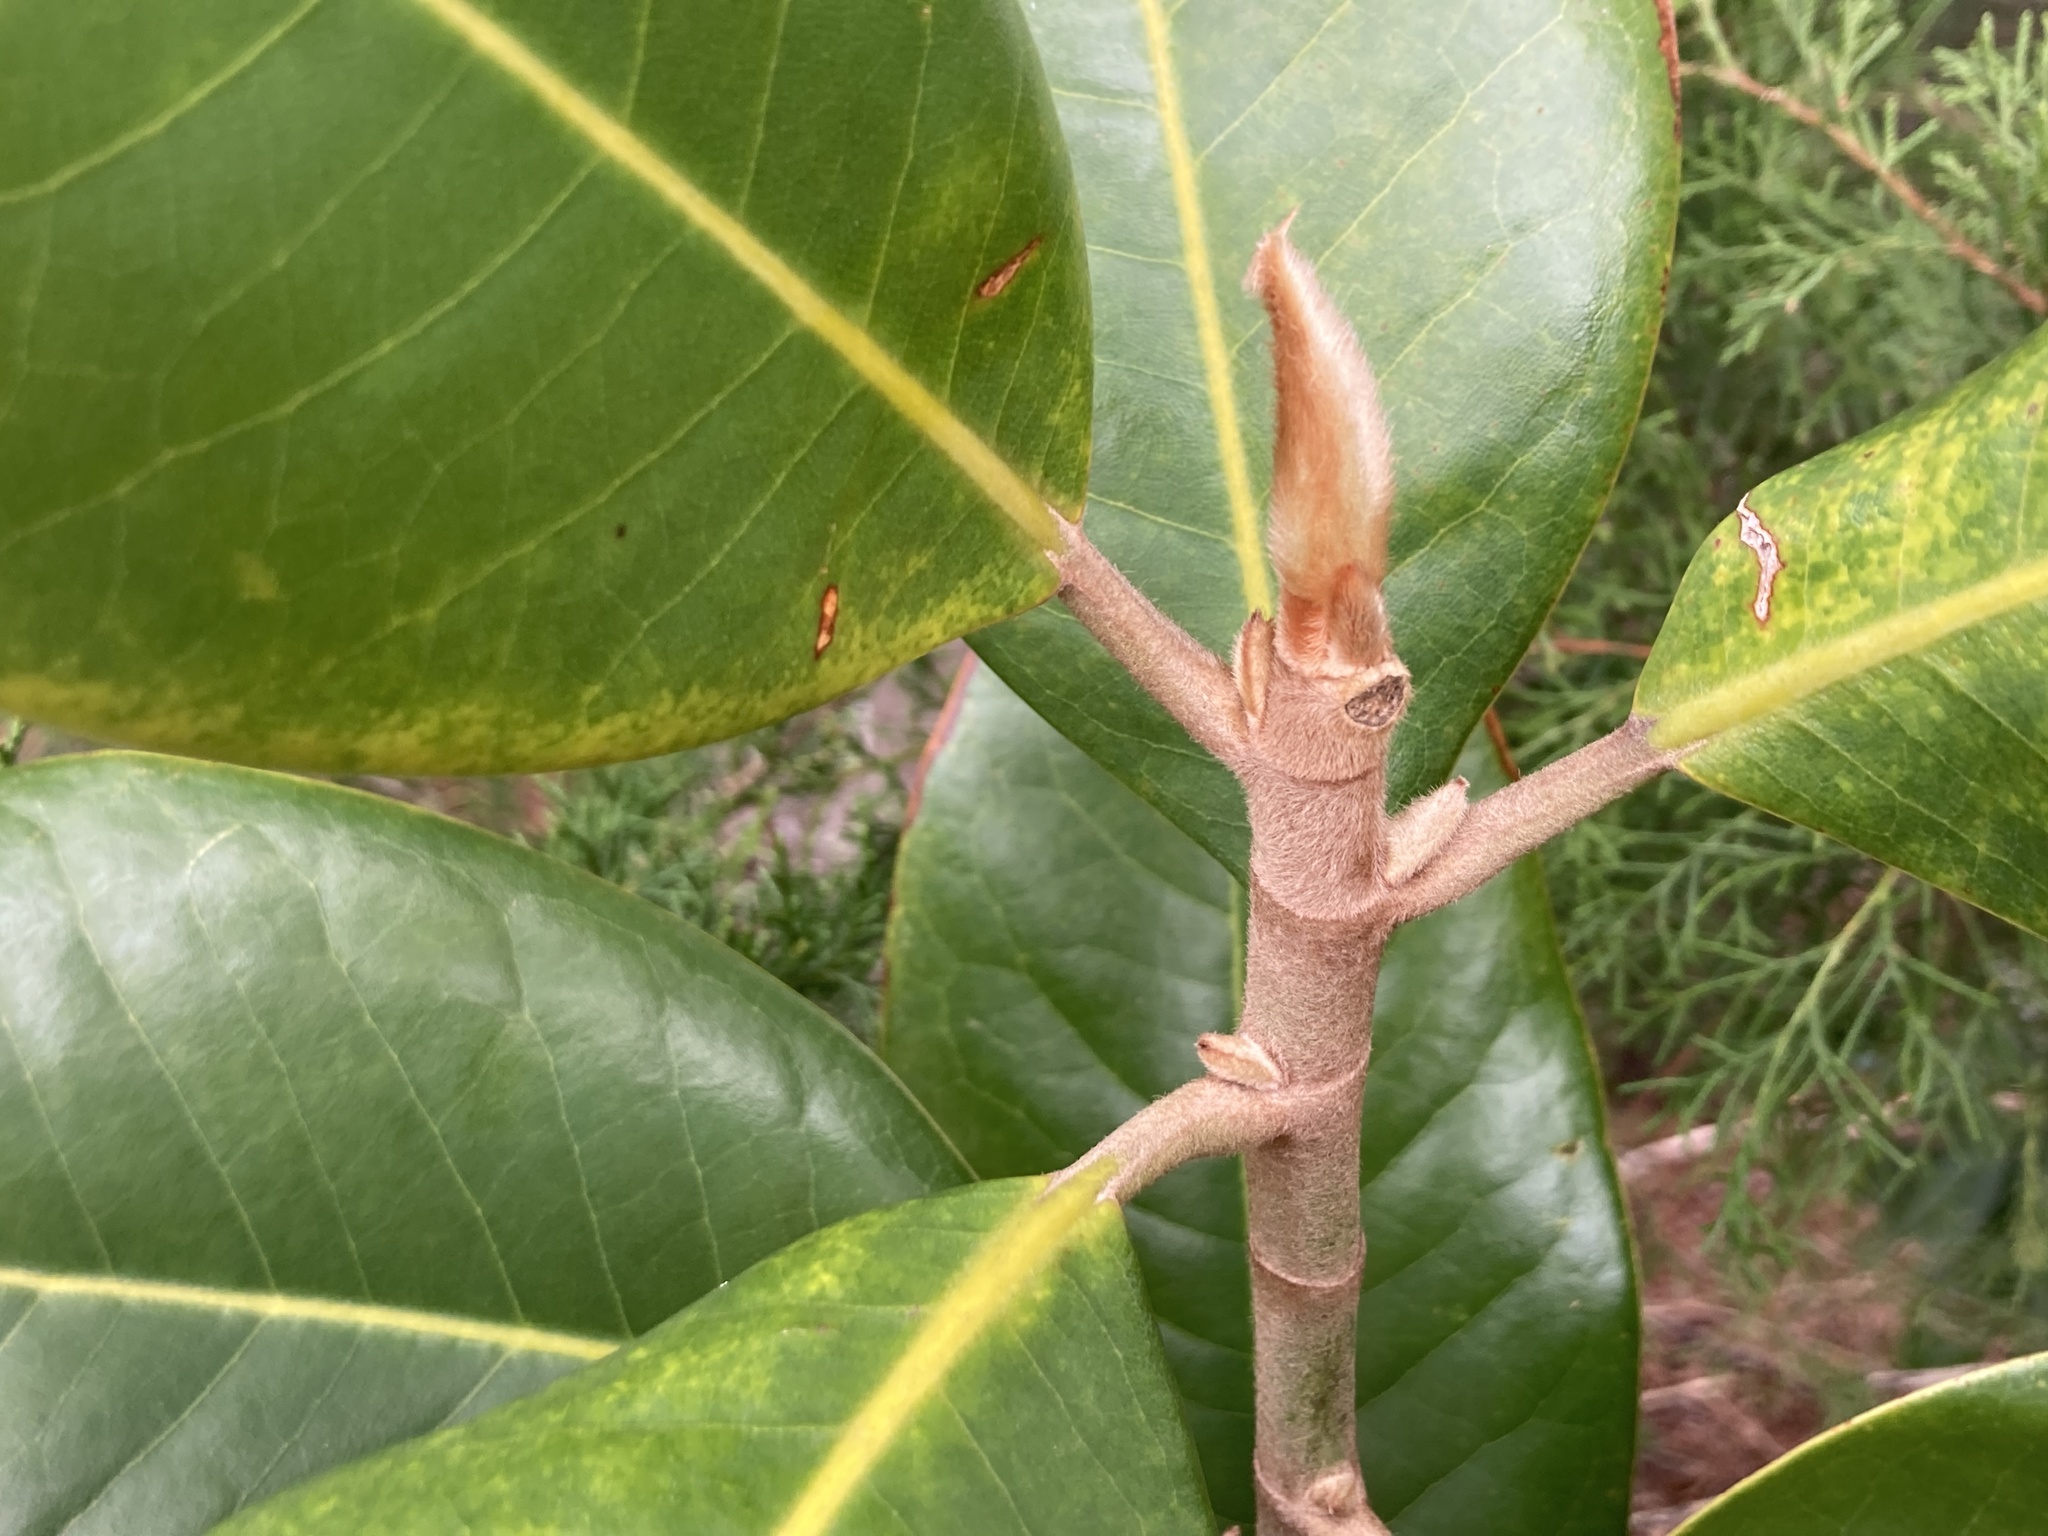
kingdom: Plantae
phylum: Tracheophyta
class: Magnoliopsida
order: Magnoliales
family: Magnoliaceae
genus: Magnolia
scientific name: Magnolia grandiflora
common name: Southern magnolia
